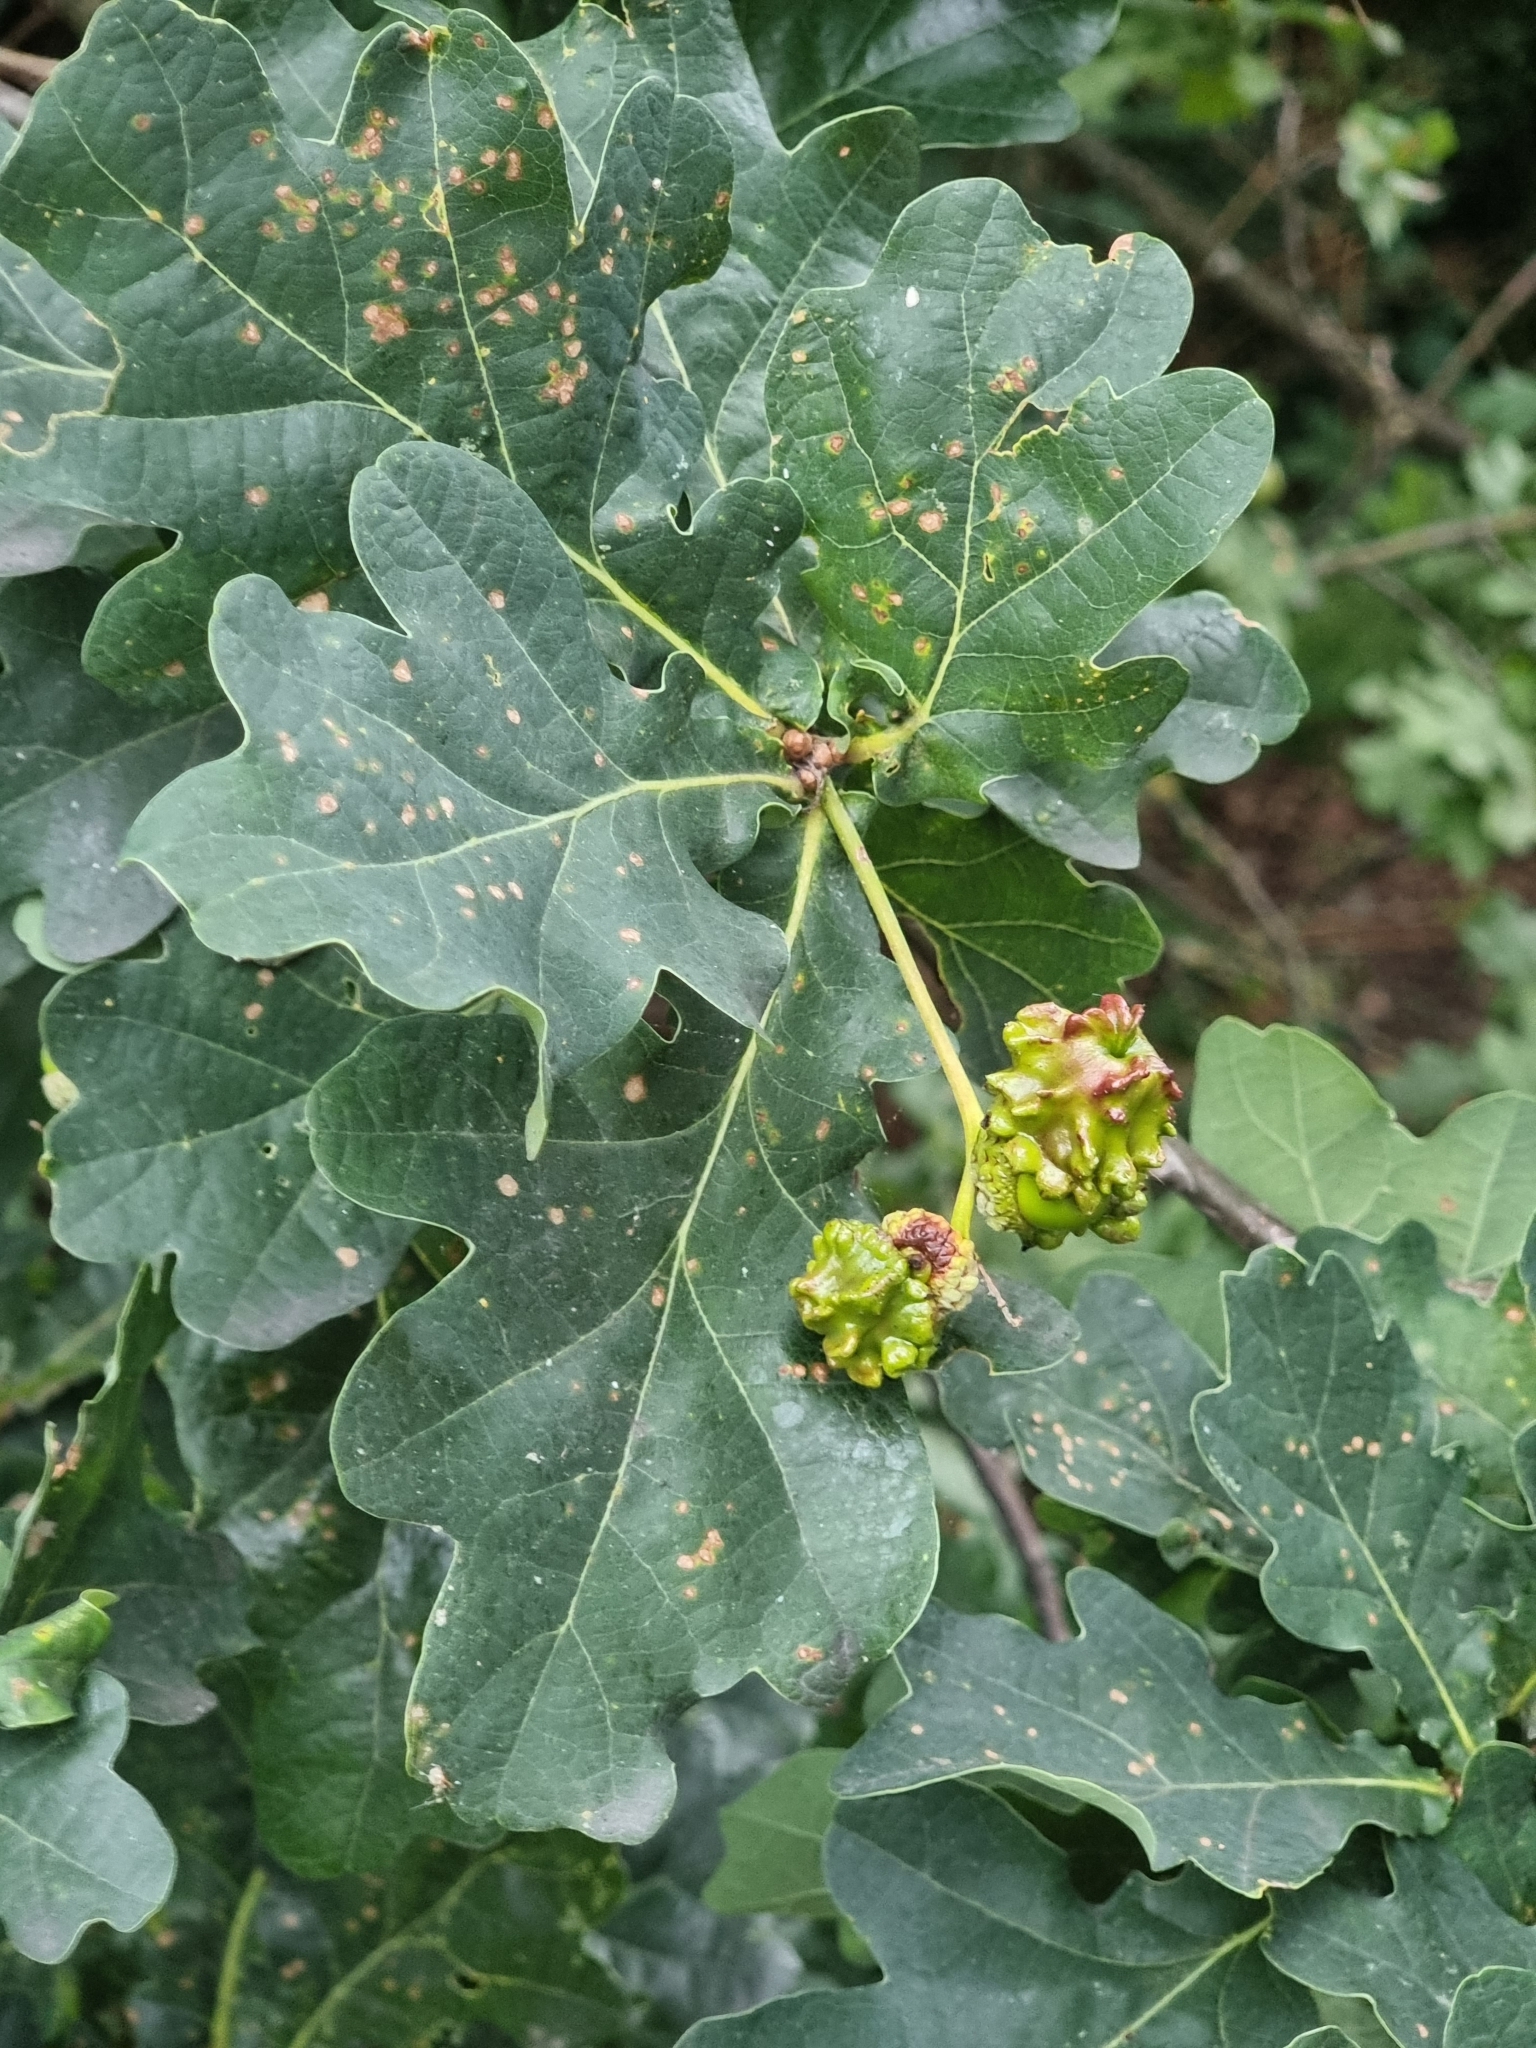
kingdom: Plantae
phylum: Tracheophyta
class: Magnoliopsida
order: Fagales
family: Fagaceae
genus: Quercus
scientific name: Quercus robur
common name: Pedunculate oak
